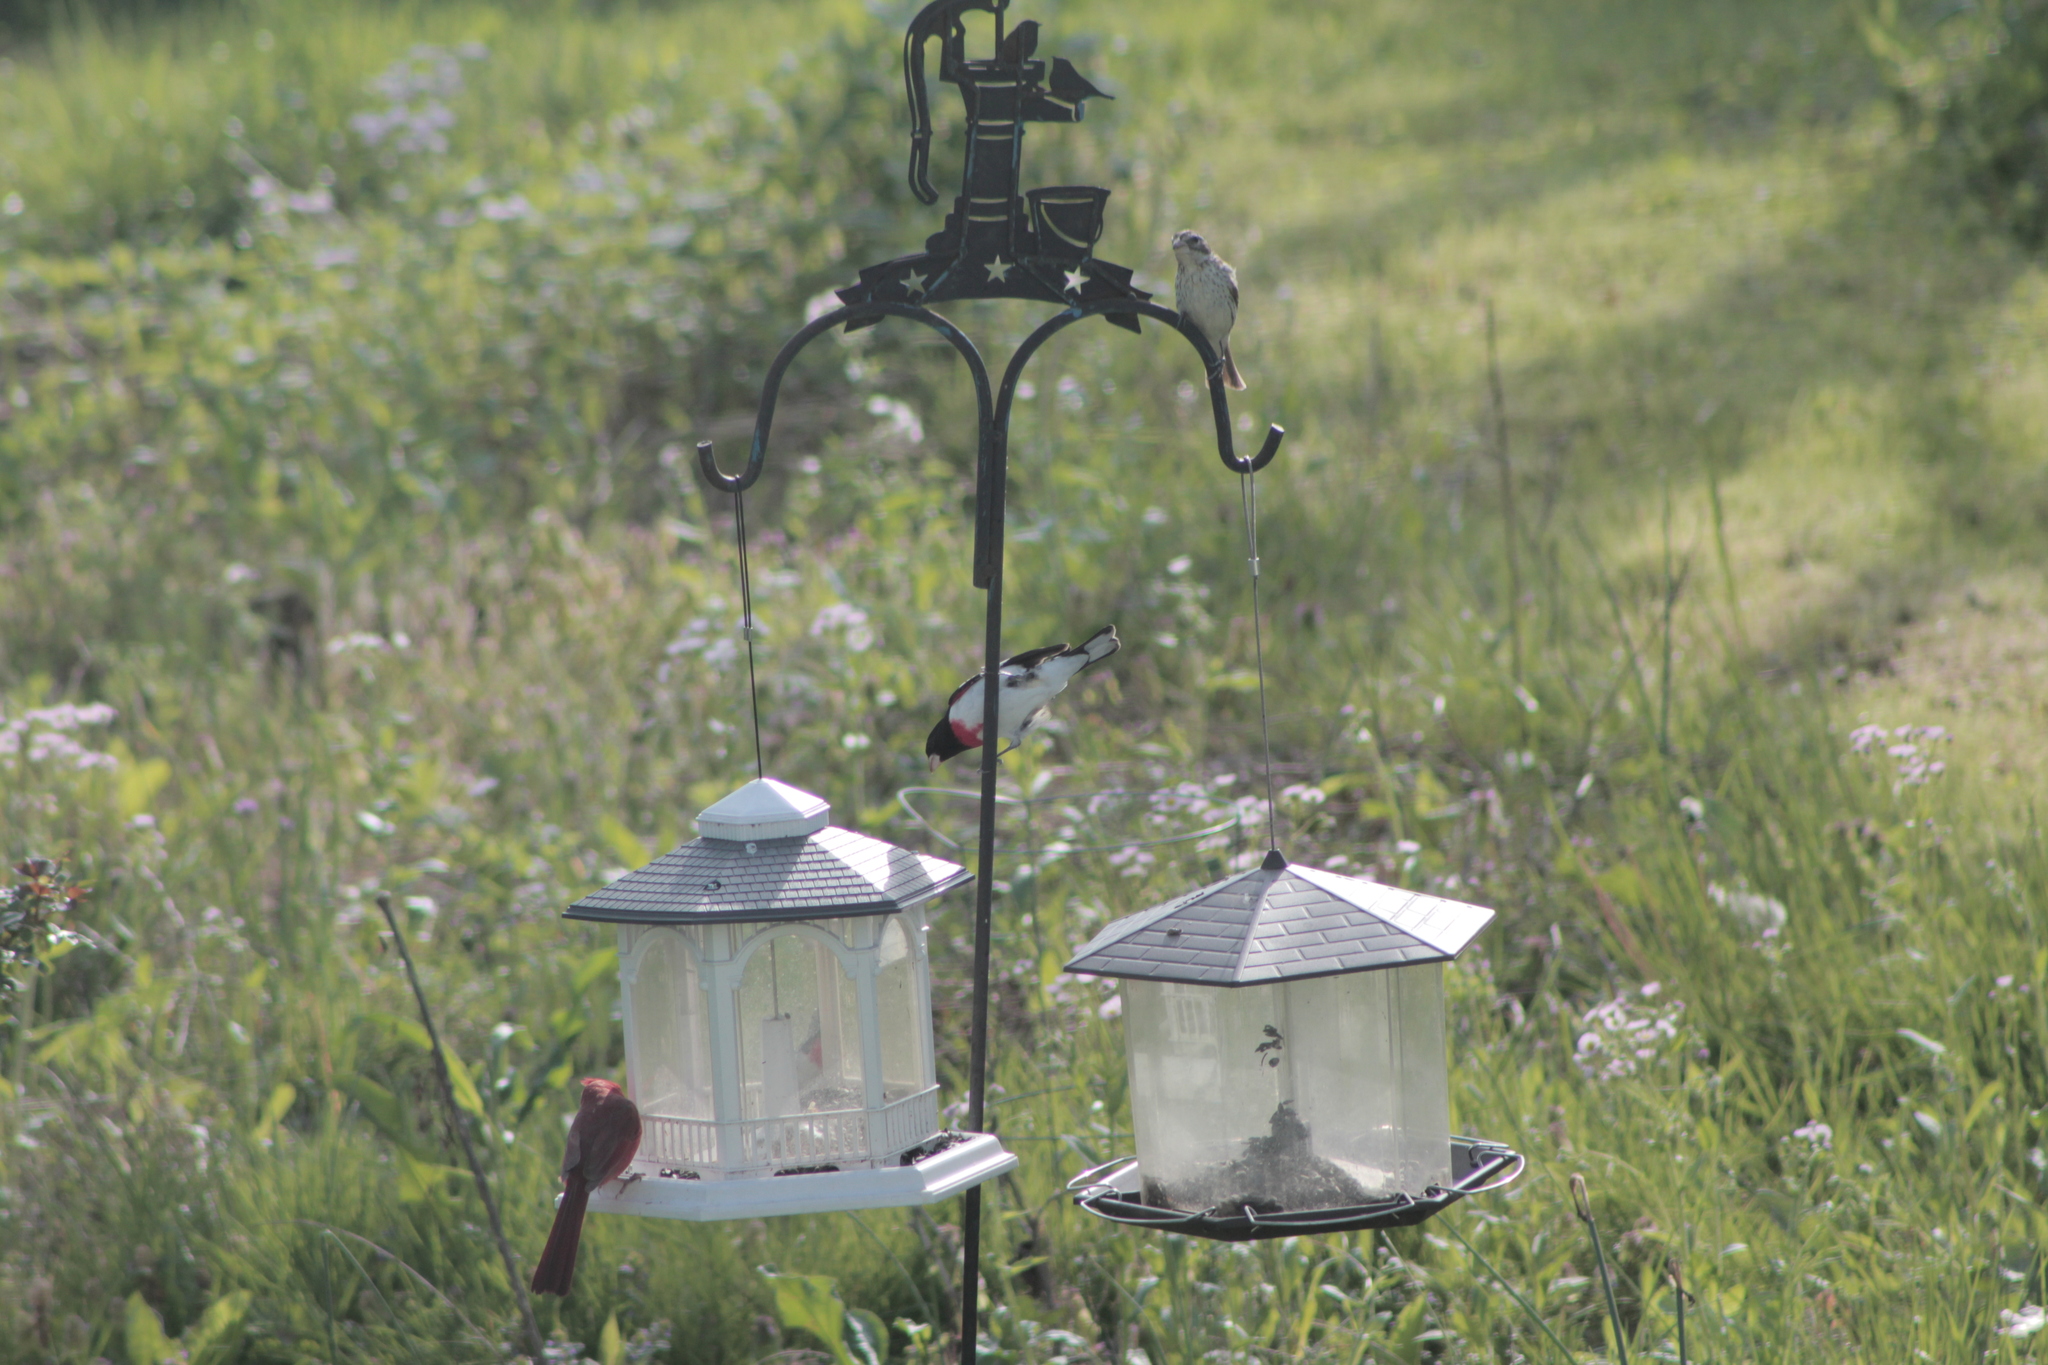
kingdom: Animalia
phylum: Chordata
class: Aves
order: Passeriformes
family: Cardinalidae
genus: Pheucticus
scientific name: Pheucticus ludovicianus
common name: Rose-breasted grosbeak
